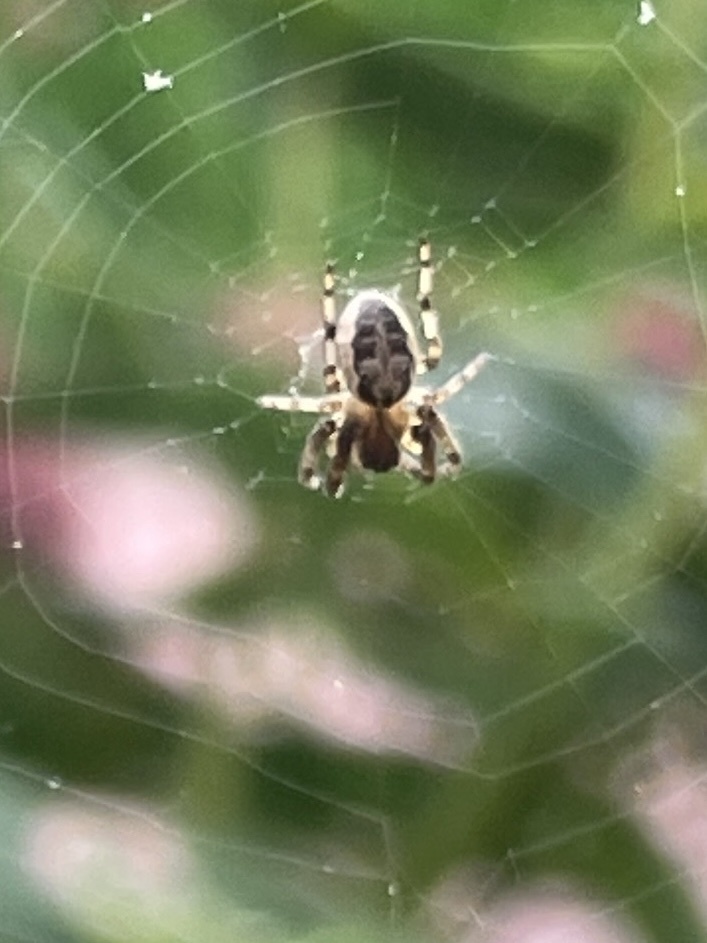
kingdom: Animalia
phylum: Arthropoda
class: Arachnida
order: Araneae
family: Araneidae
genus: Larinioides
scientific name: Larinioides cornutus
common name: Furrow orbweaver
